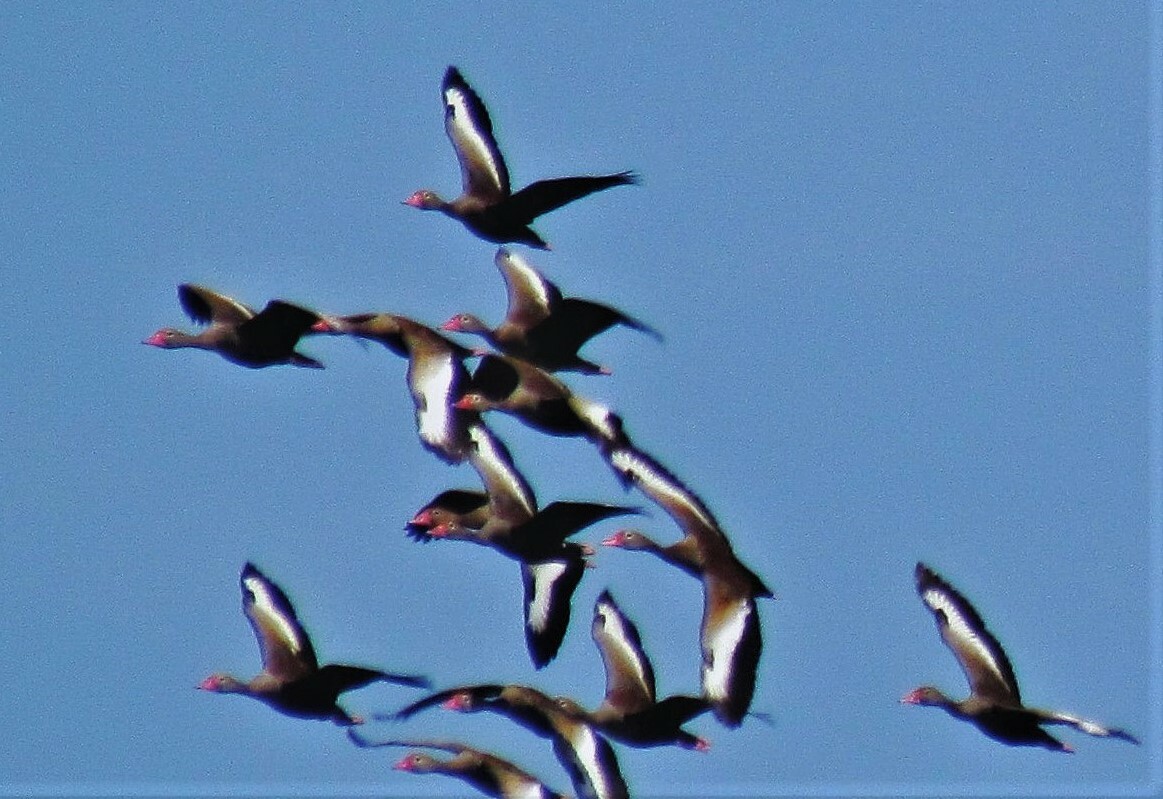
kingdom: Animalia
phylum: Chordata
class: Aves
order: Anseriformes
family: Anatidae
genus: Dendrocygna
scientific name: Dendrocygna autumnalis
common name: Black-bellied whistling duck
